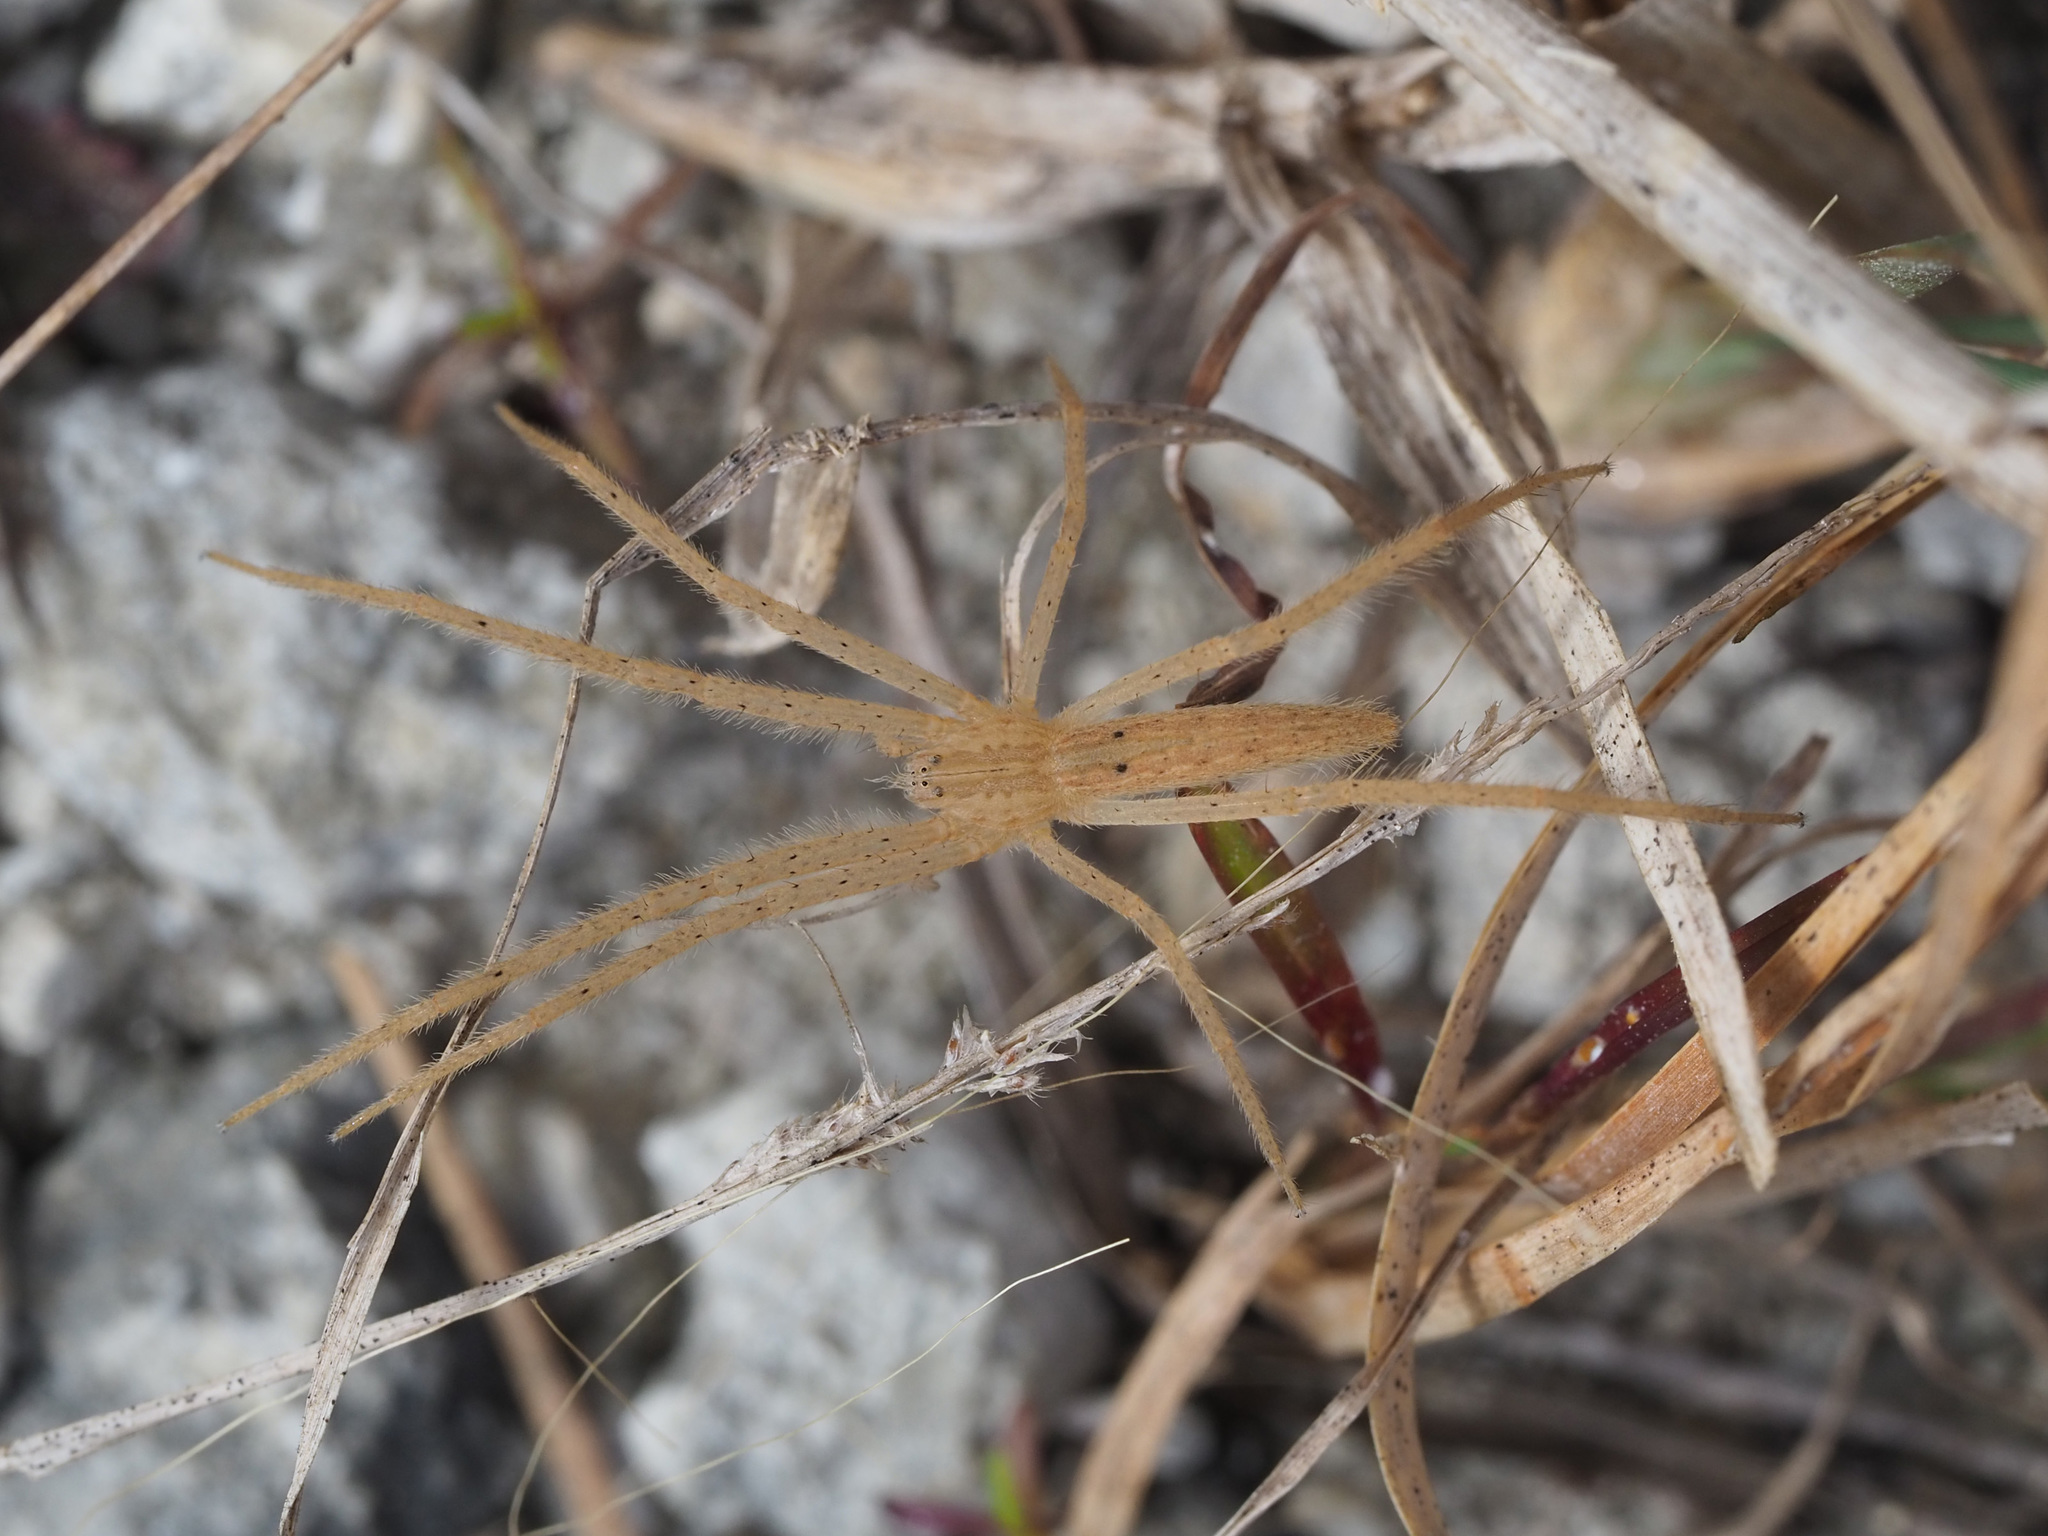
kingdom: Animalia
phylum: Arthropoda
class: Arachnida
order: Araneae
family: Pisauridae
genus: Pisaurina
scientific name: Pisaurina undulata
